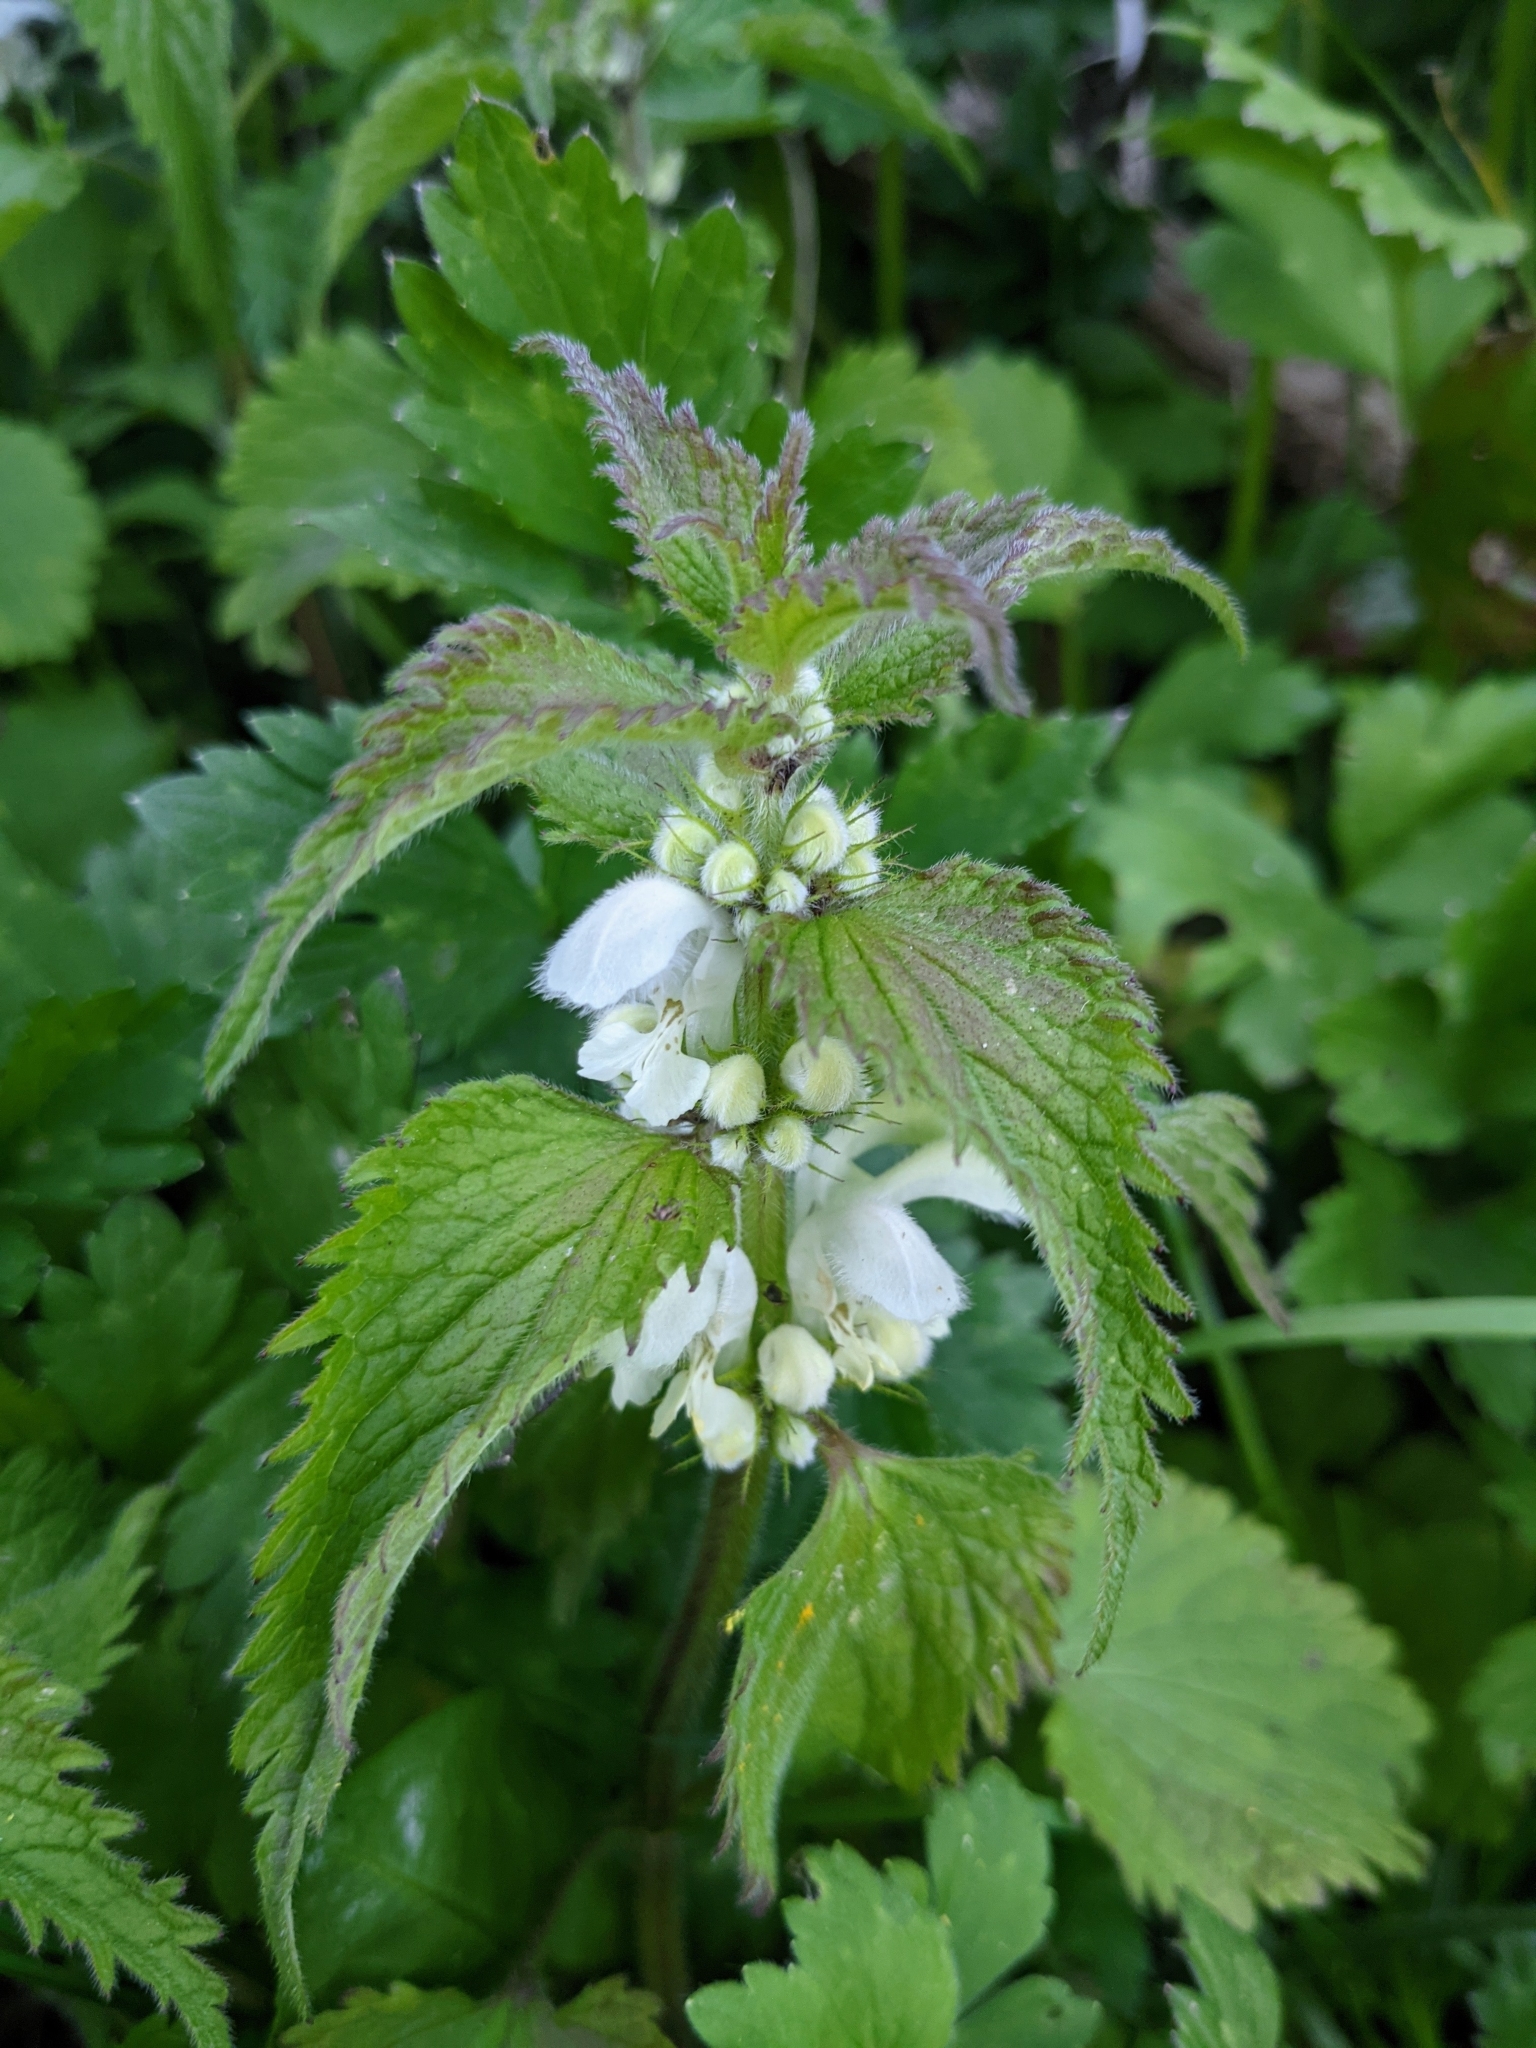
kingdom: Plantae
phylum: Tracheophyta
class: Magnoliopsida
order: Lamiales
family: Lamiaceae
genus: Lamium
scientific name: Lamium album
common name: White dead-nettle
